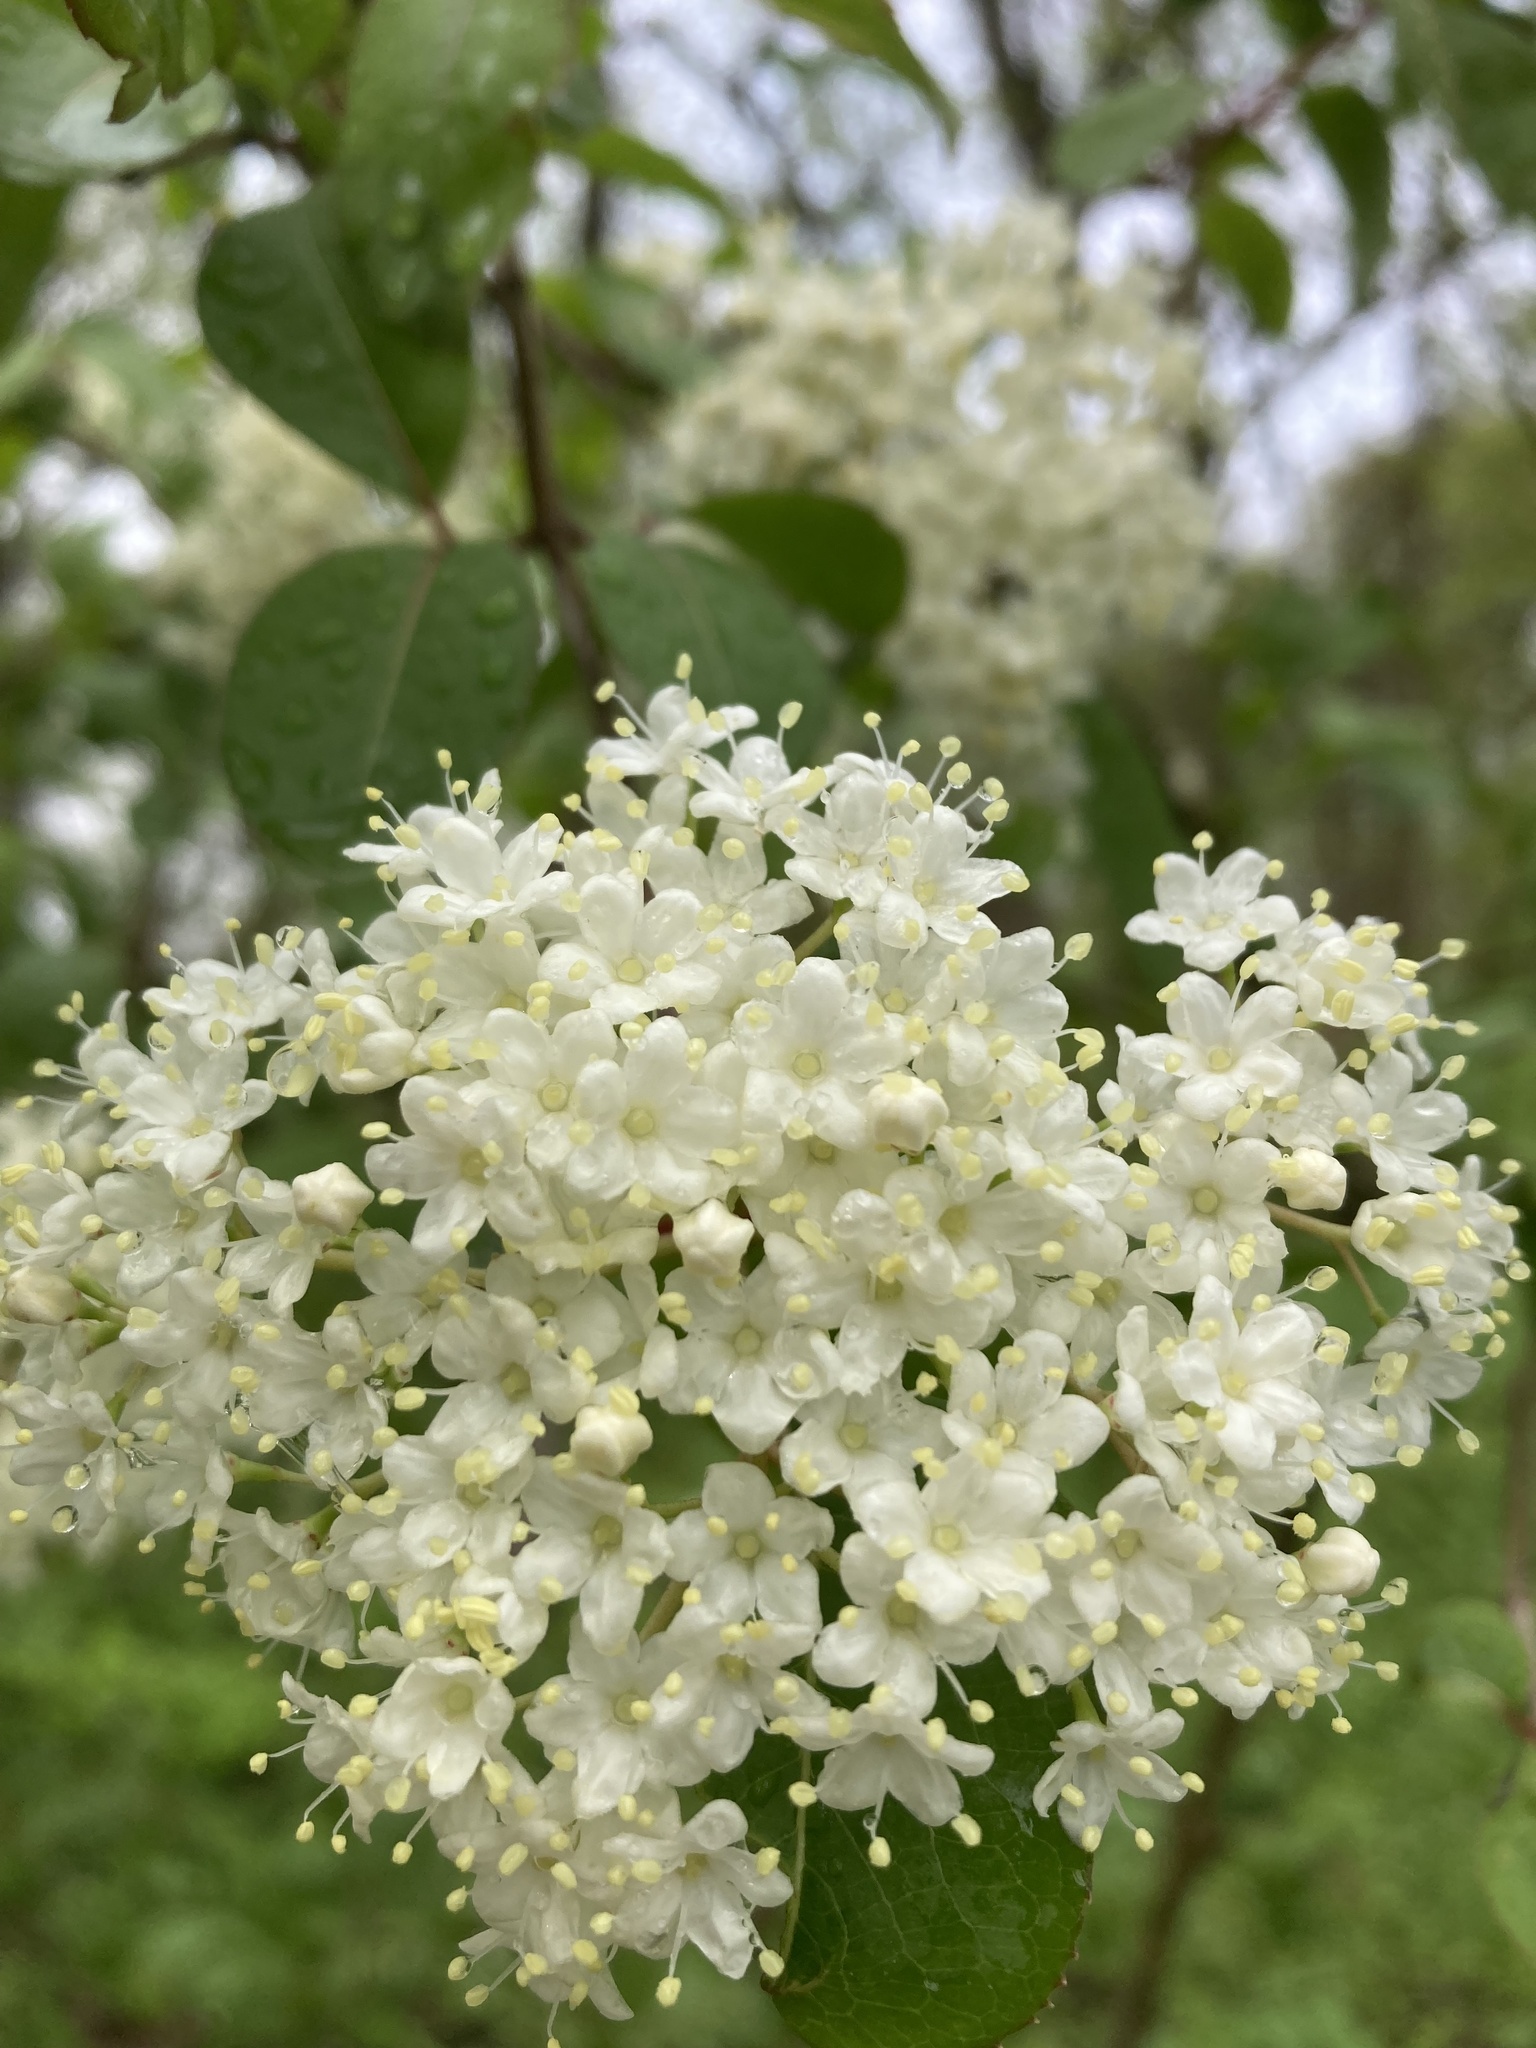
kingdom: Plantae
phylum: Tracheophyta
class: Magnoliopsida
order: Dipsacales
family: Viburnaceae
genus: Viburnum
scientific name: Viburnum prunifolium
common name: Black haw
